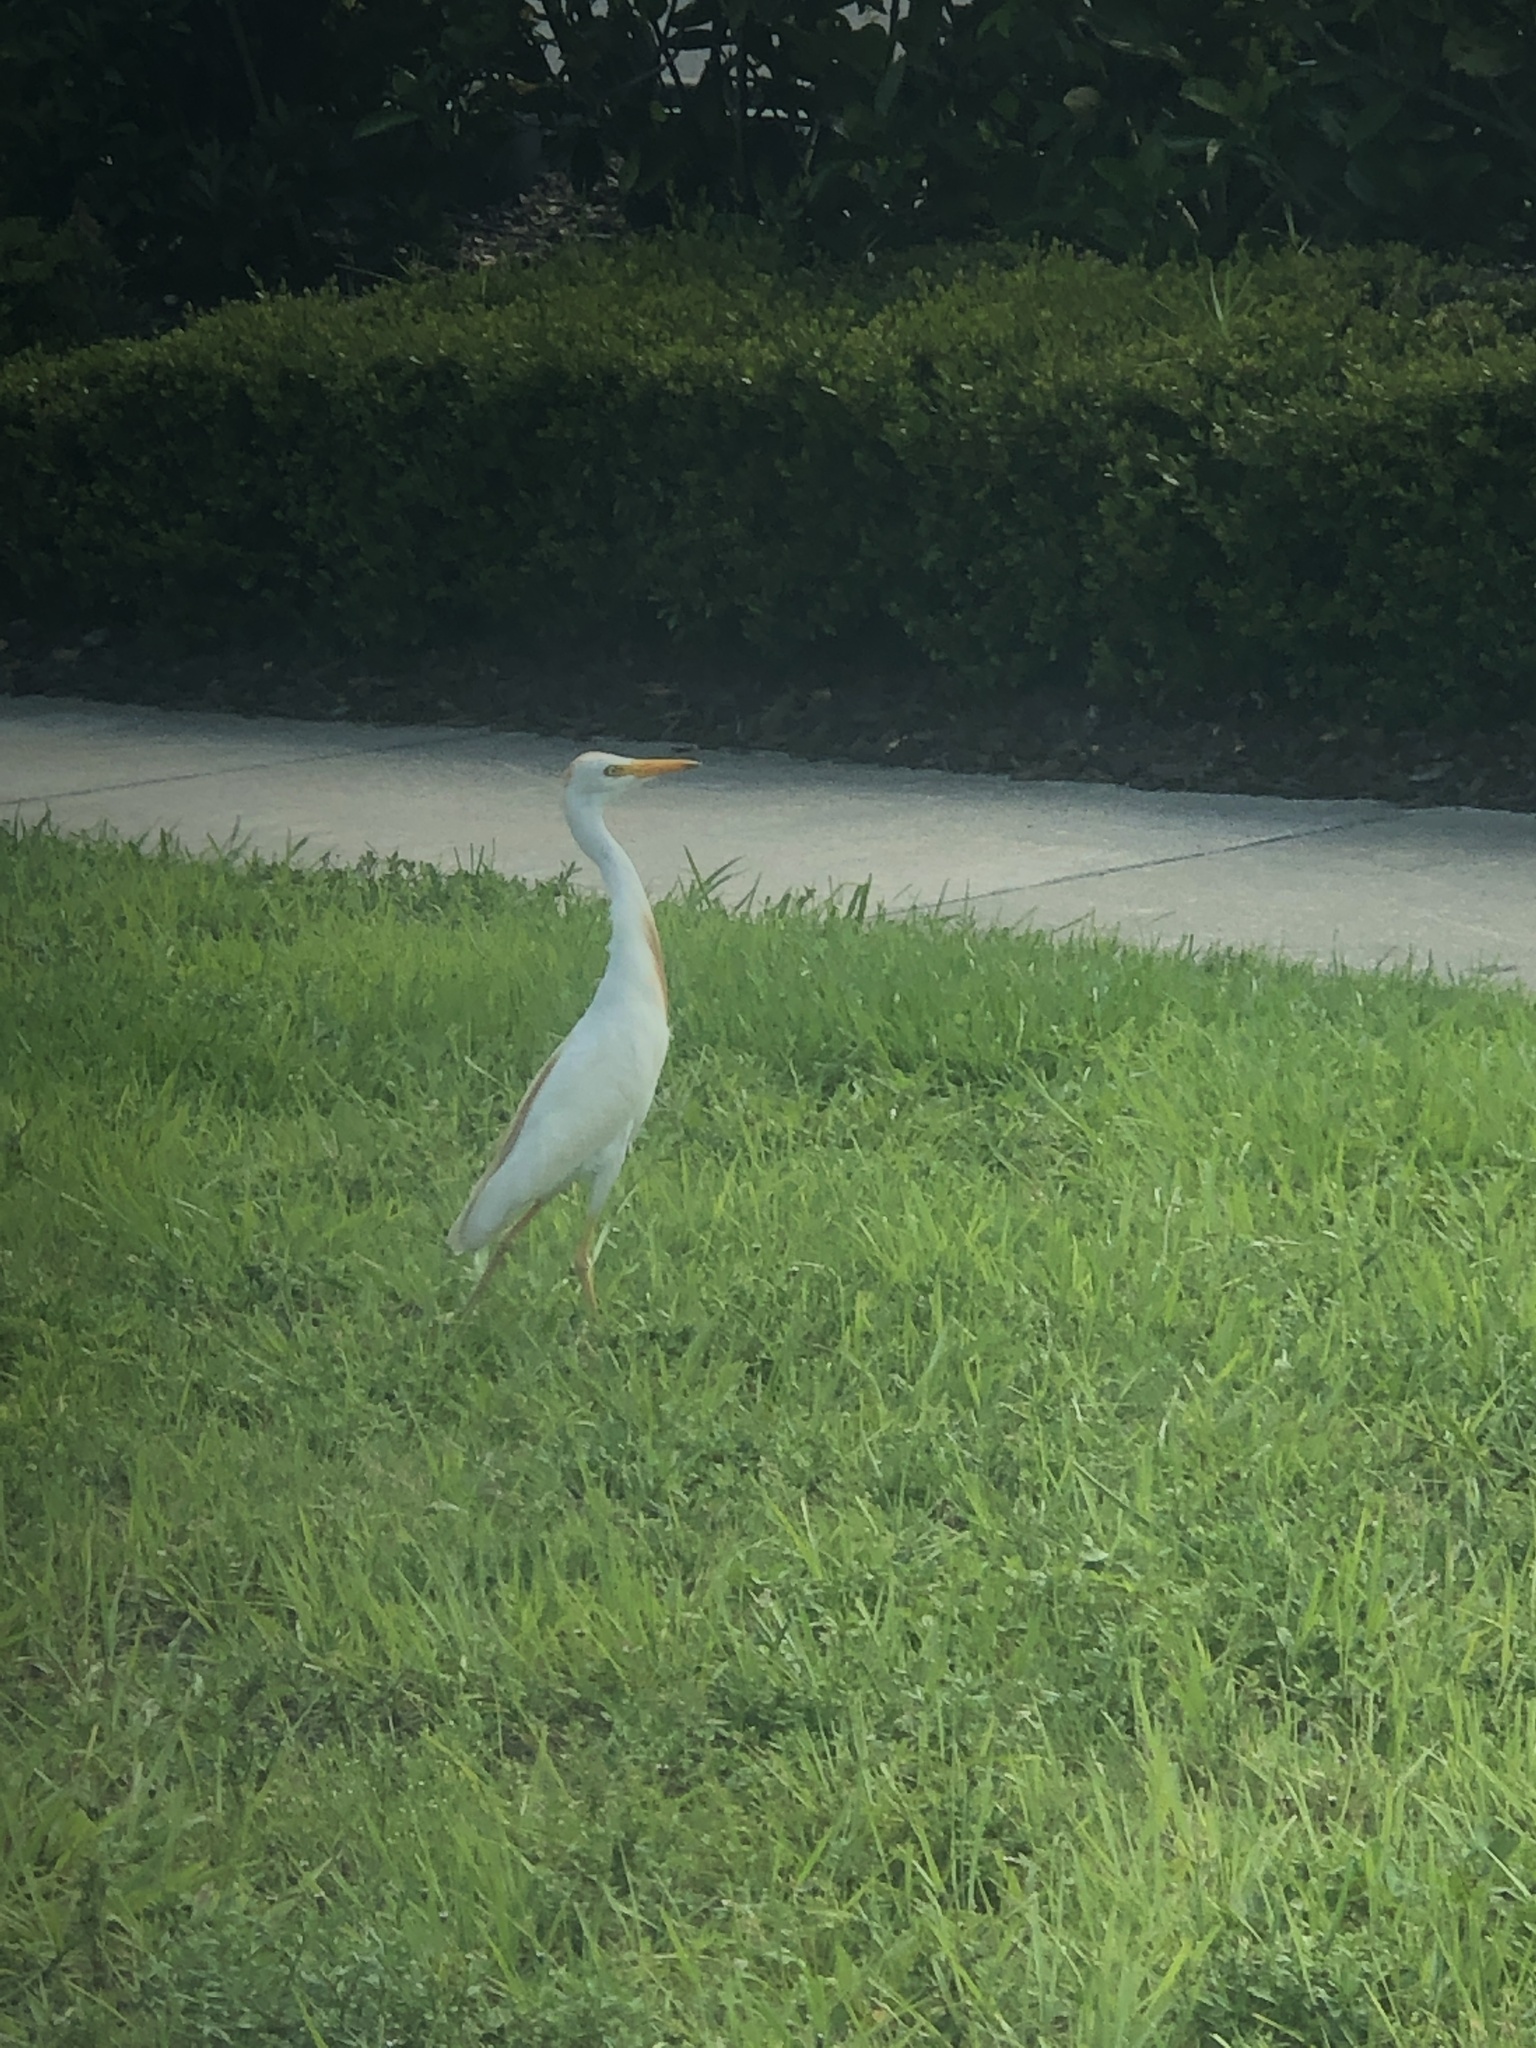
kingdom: Animalia
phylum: Chordata
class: Aves
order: Pelecaniformes
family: Ardeidae
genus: Bubulcus
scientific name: Bubulcus ibis
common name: Cattle egret
